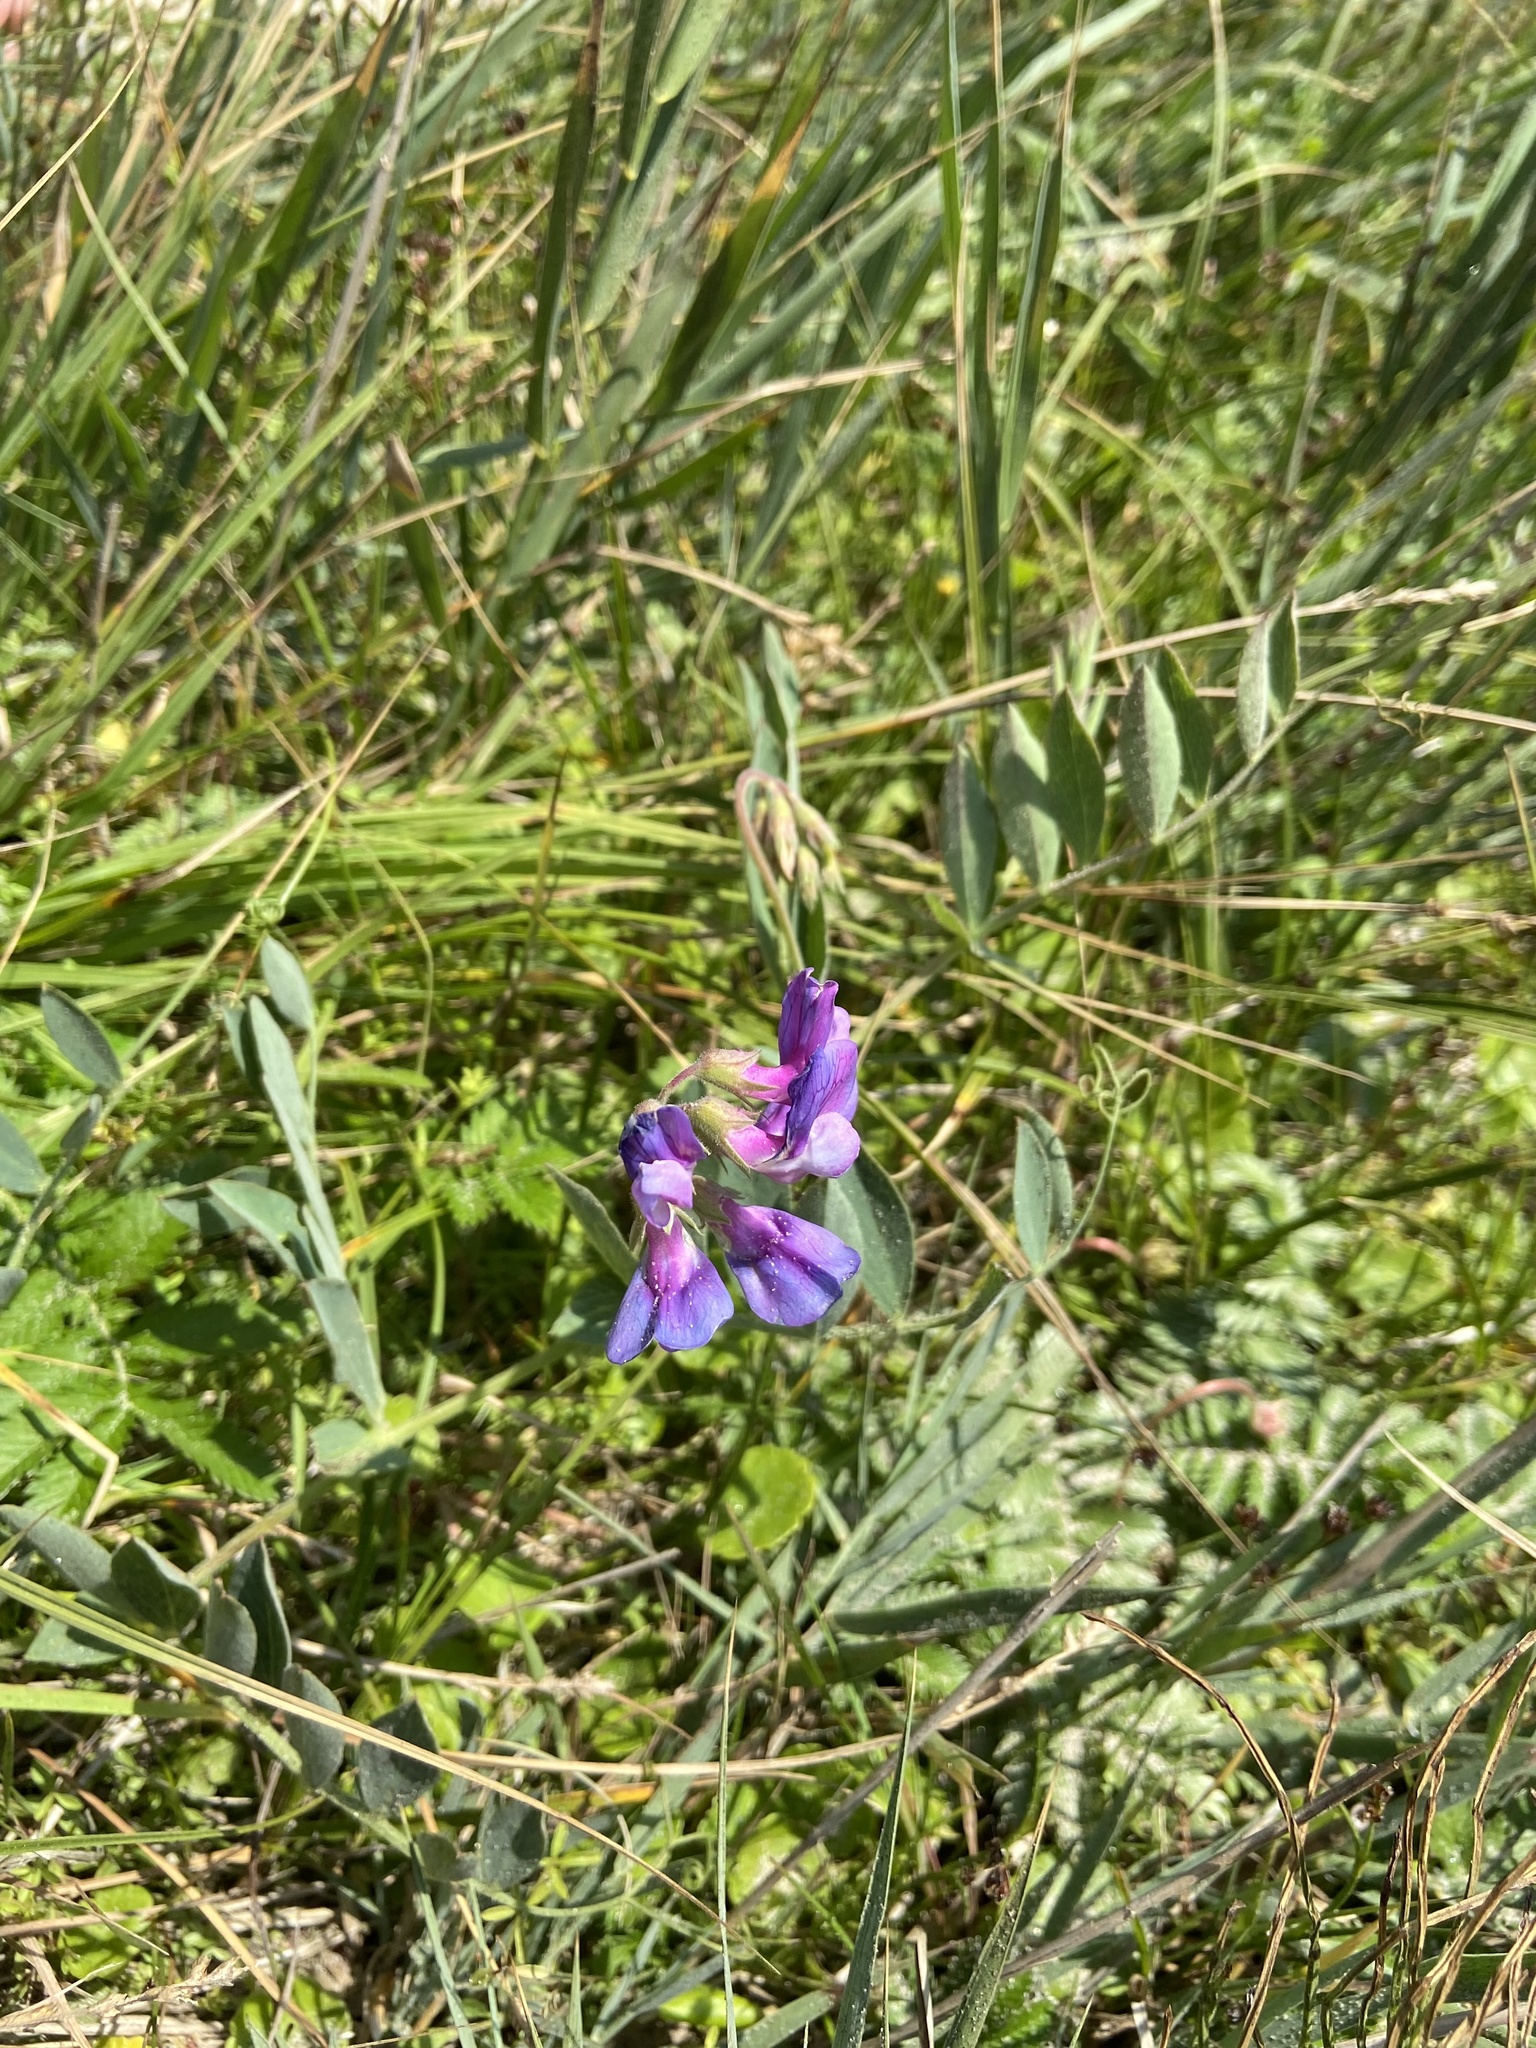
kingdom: Plantae
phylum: Tracheophyta
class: Magnoliopsida
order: Fabales
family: Fabaceae
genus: Lathyrus
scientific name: Lathyrus japonicus
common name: Sea pea
